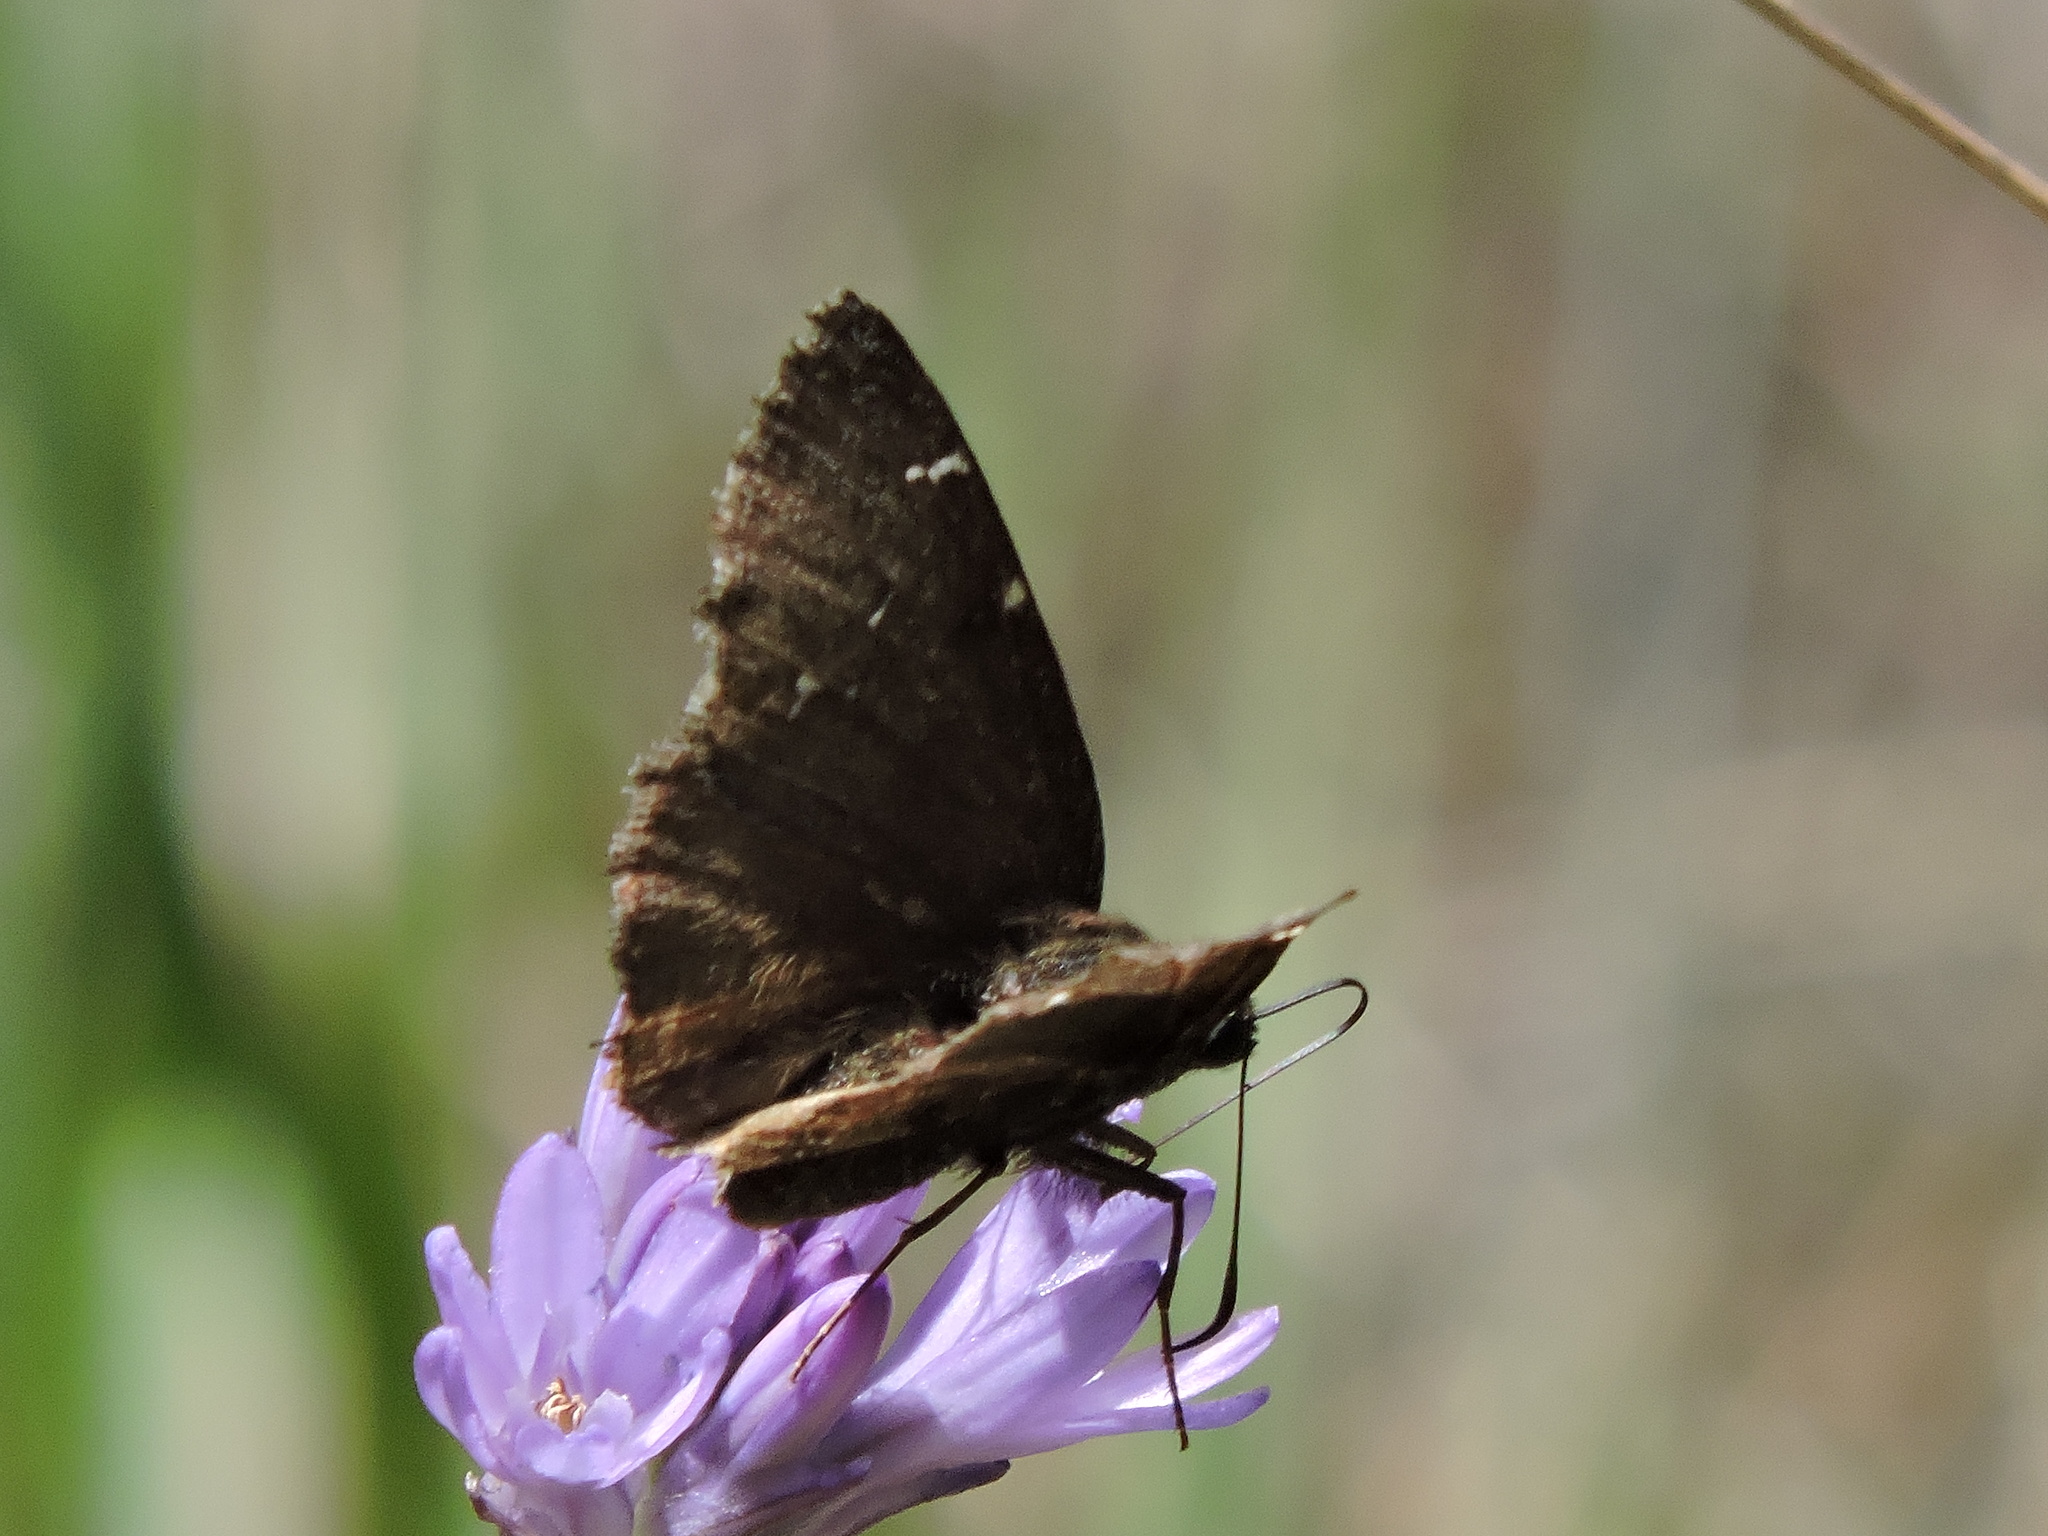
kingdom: Animalia
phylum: Arthropoda
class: Insecta
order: Lepidoptera
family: Hesperiidae
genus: Thorybes
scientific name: Thorybes pylades
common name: Northern cloudywing
